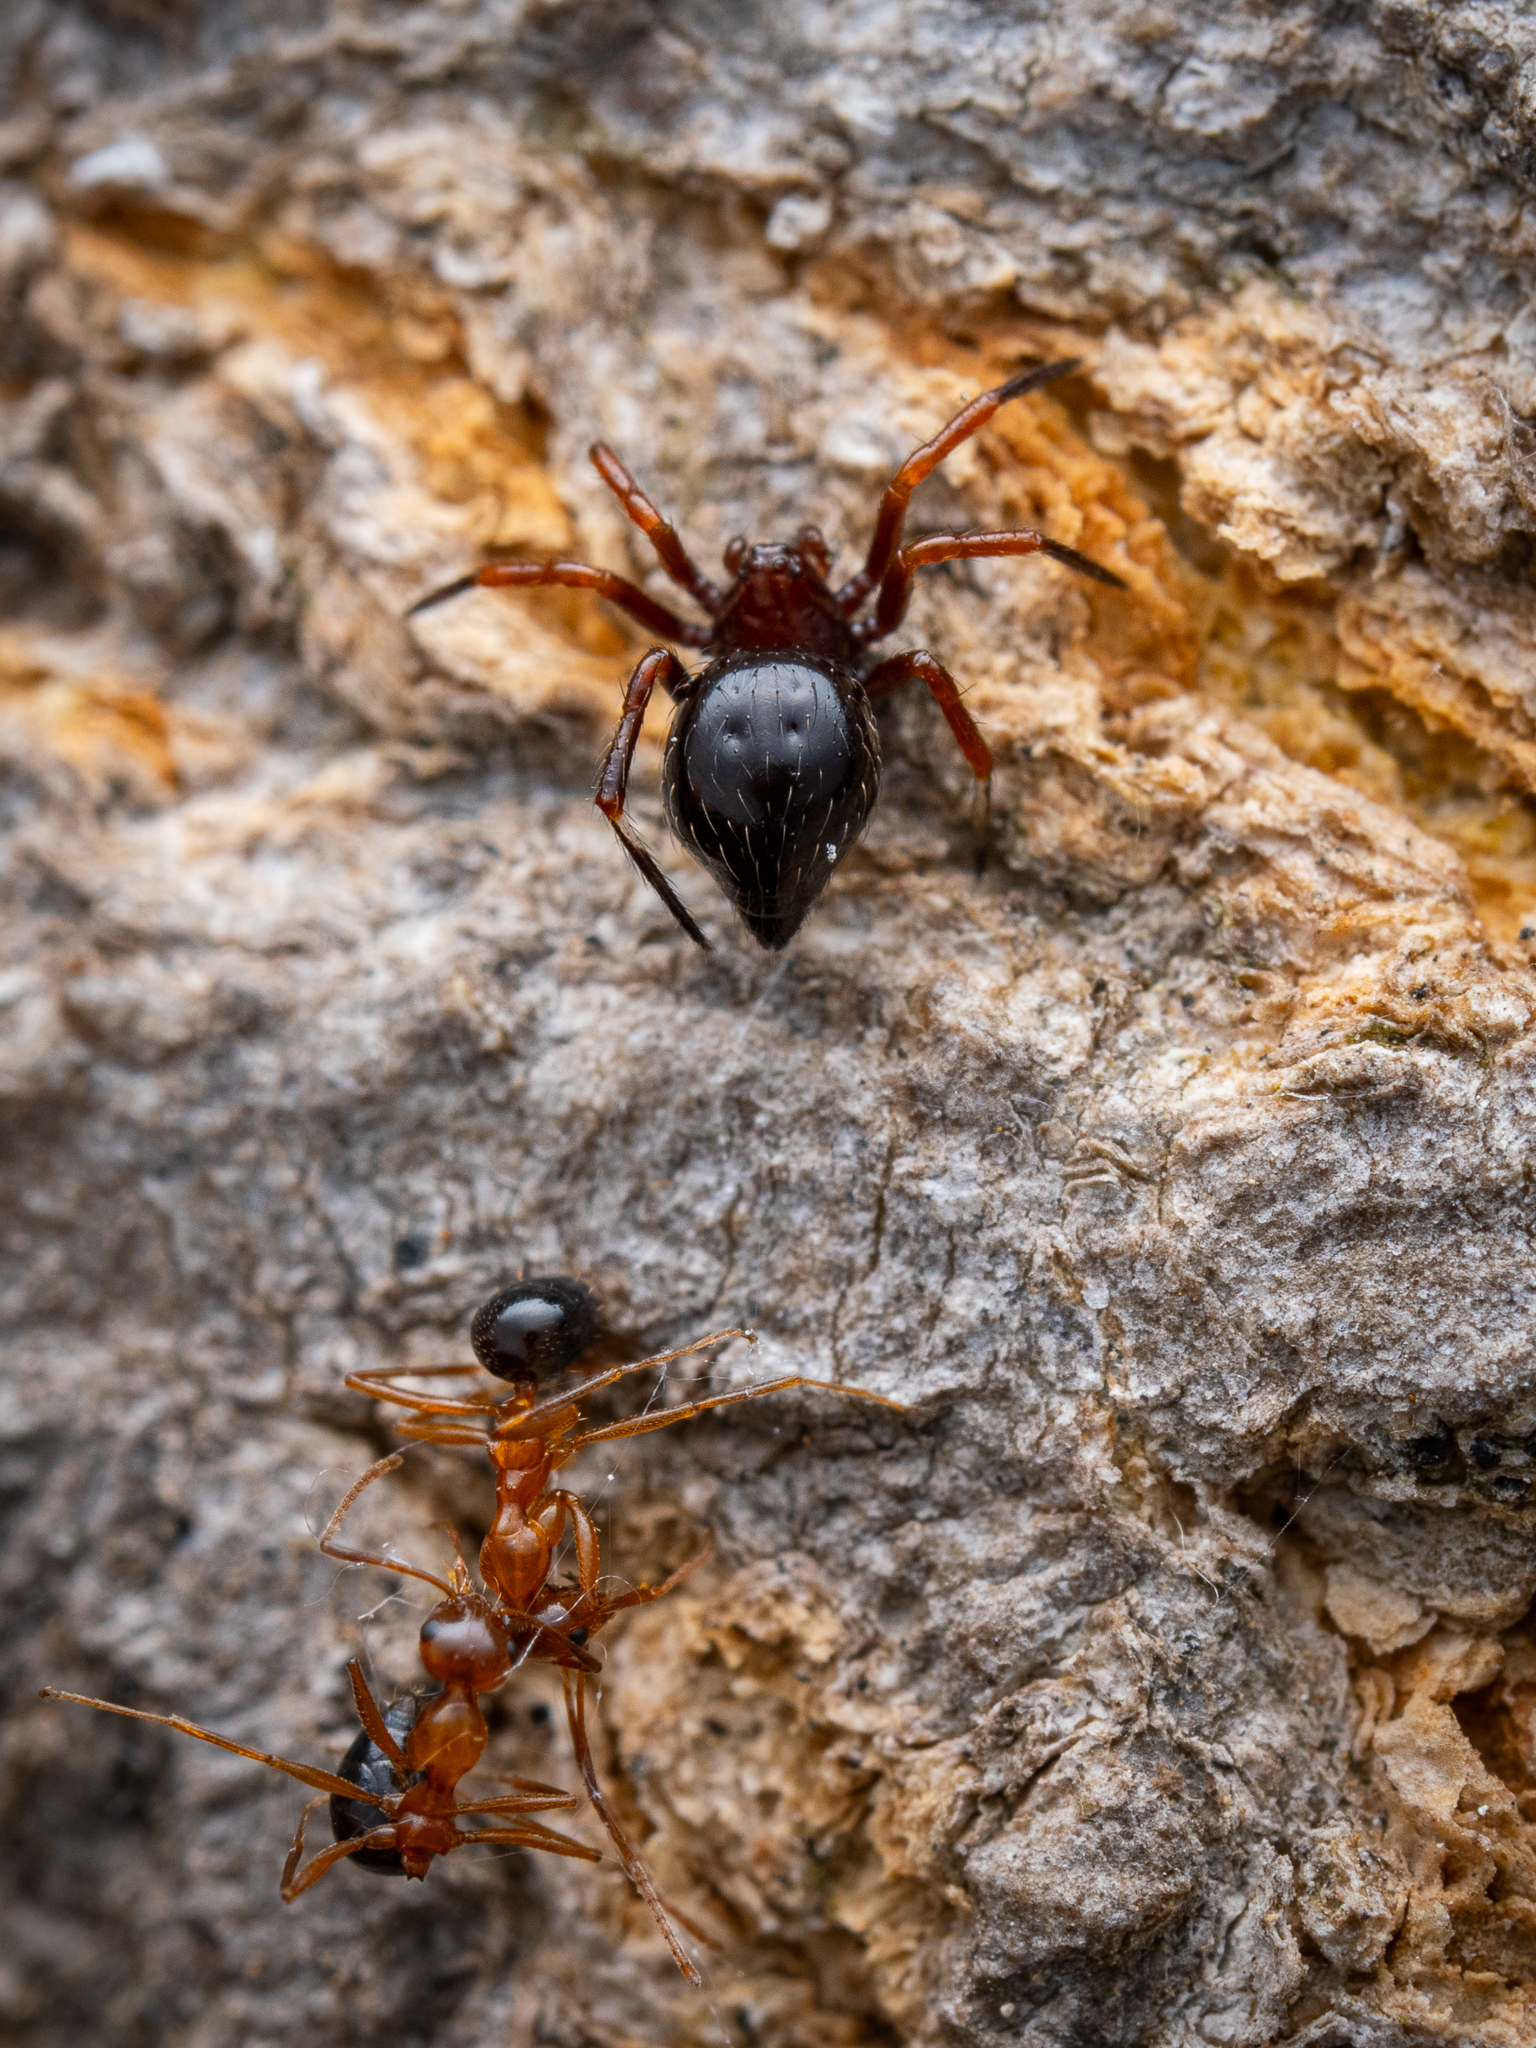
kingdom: Animalia
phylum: Arthropoda
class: Arachnida
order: Araneae
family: Theridiidae
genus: Euryopis
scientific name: Euryopis episinoides
